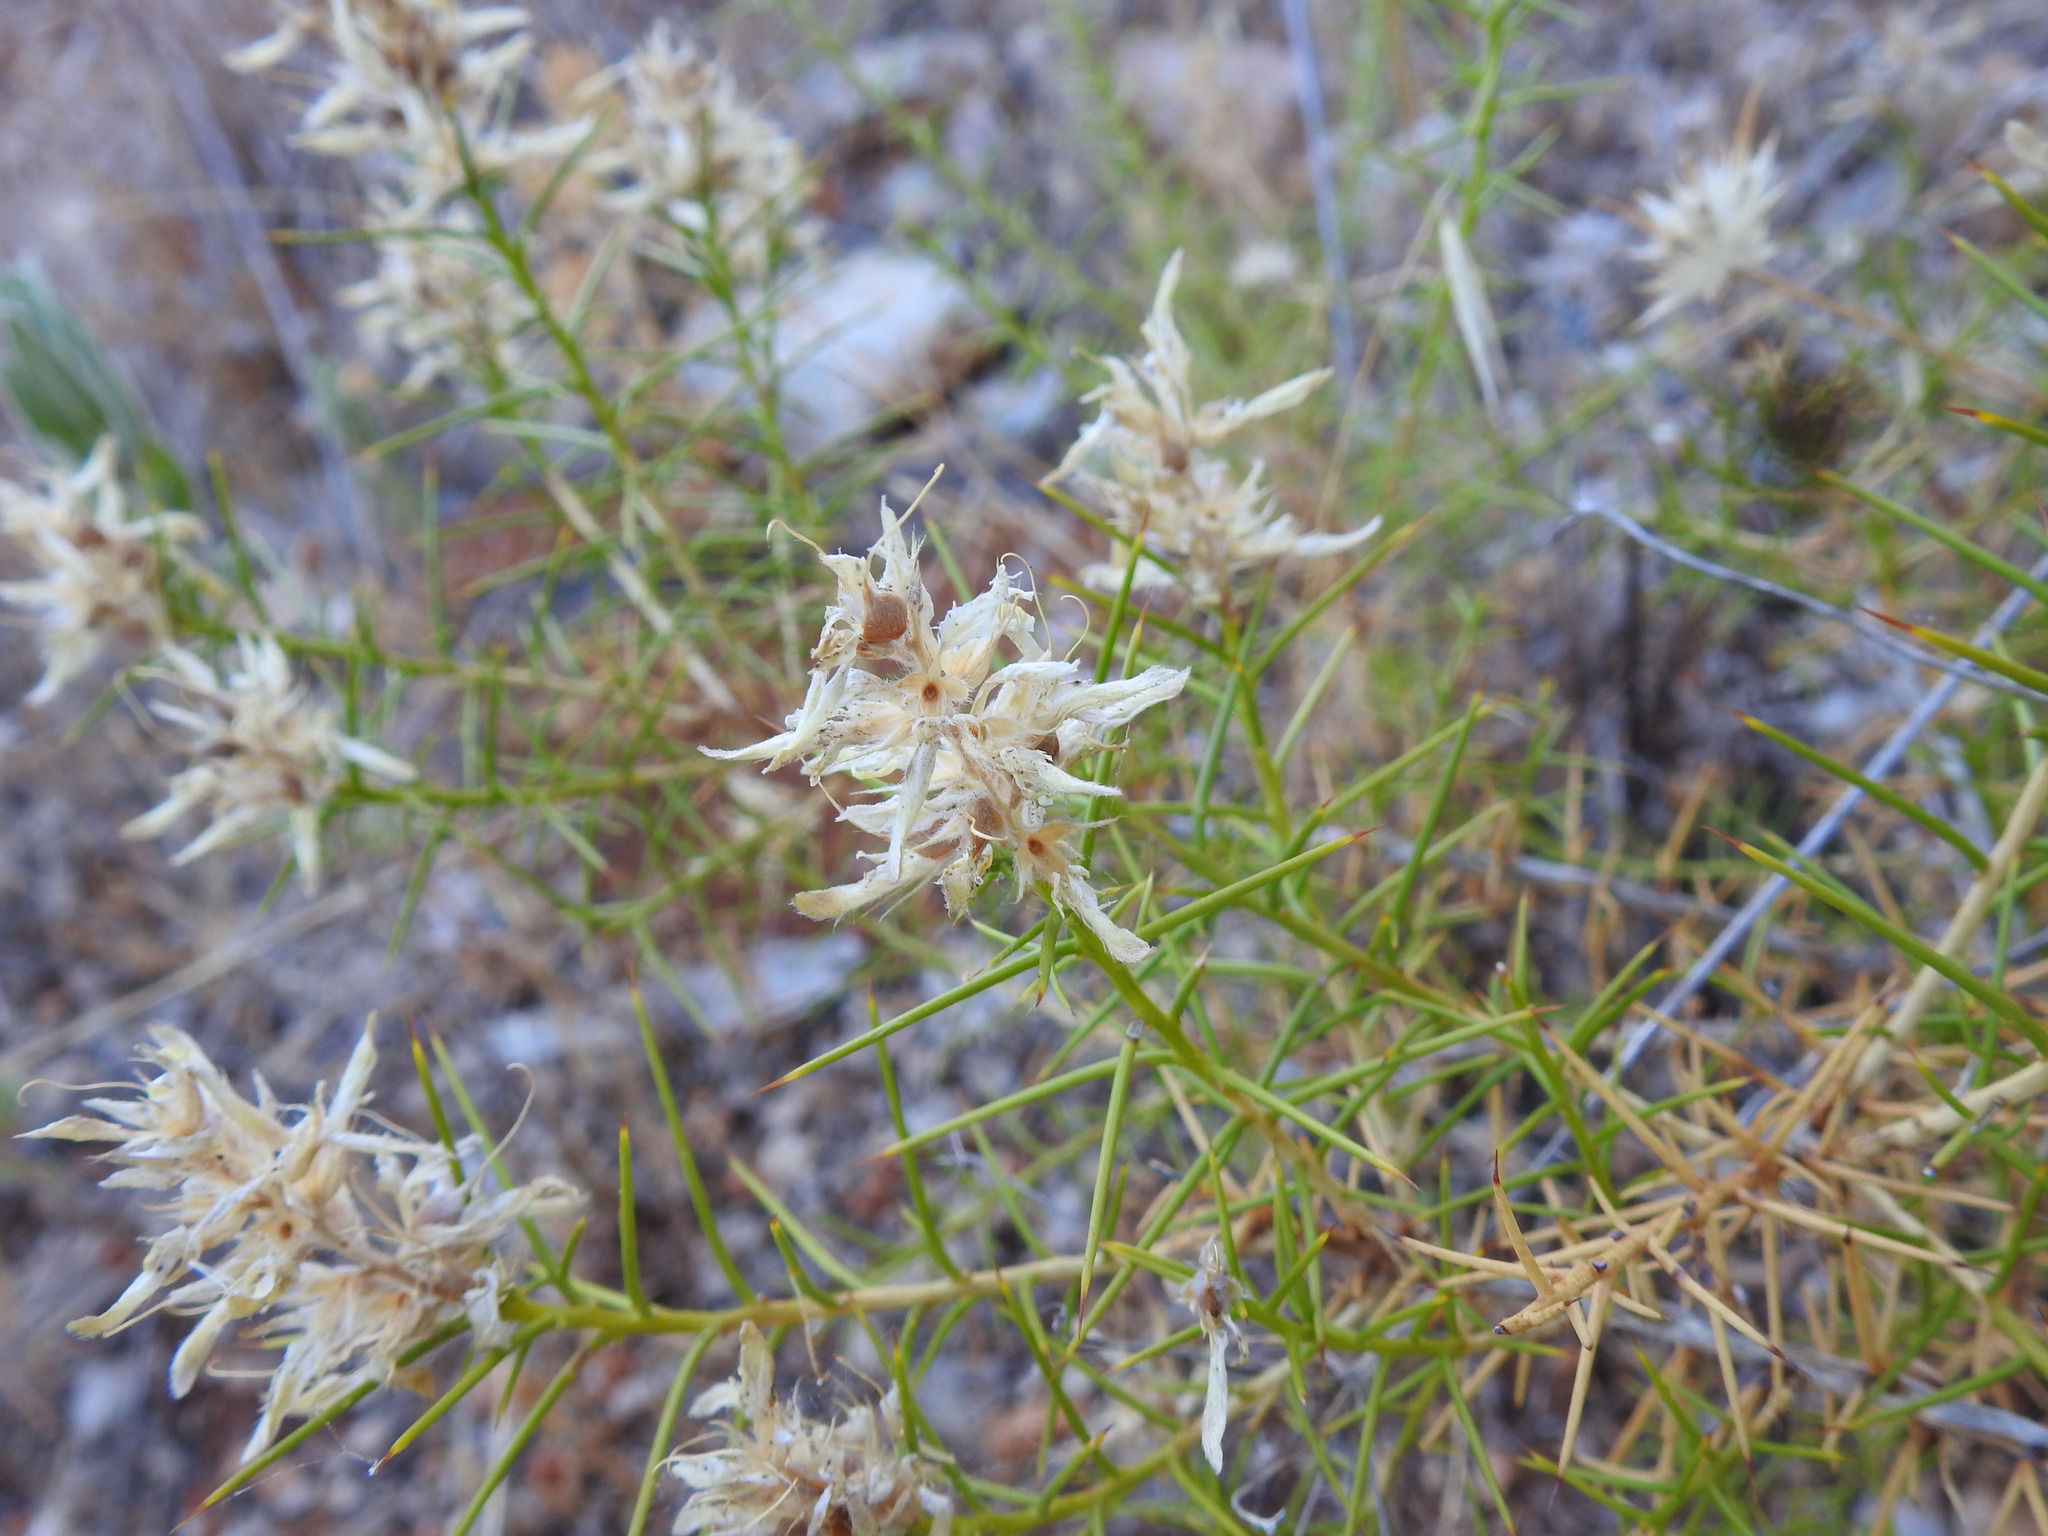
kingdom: Plantae
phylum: Tracheophyta
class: Magnoliopsida
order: Fabales
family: Fabaceae
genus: Genista
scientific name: Genista hirsuta
